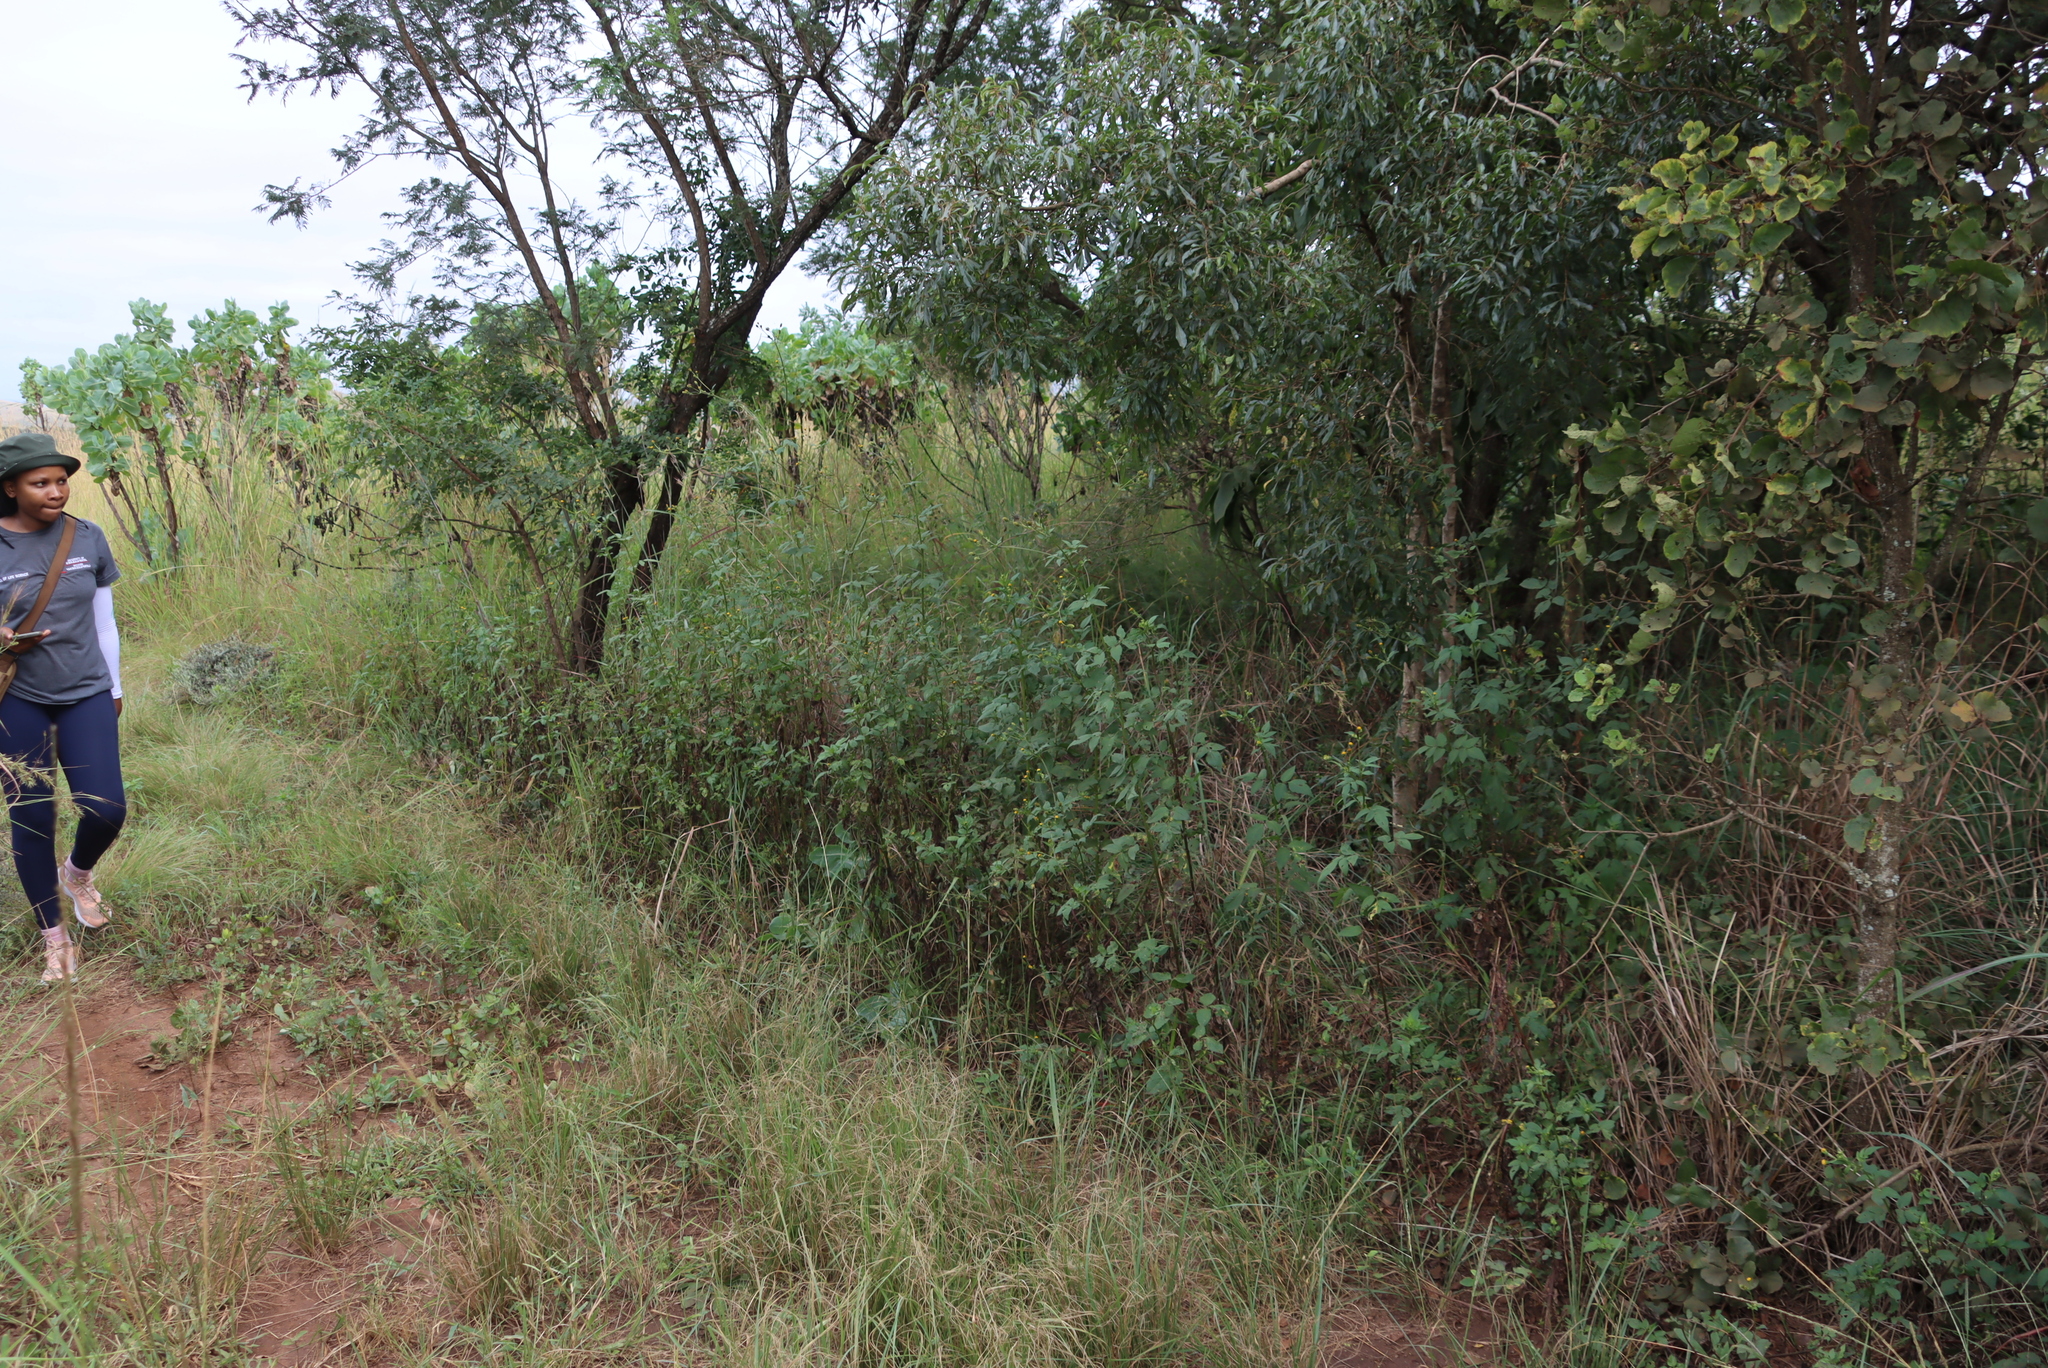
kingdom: Plantae
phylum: Tracheophyta
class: Magnoliopsida
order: Asterales
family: Asteraceae
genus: Bidens
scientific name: Bidens pilosa
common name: Black-jack
